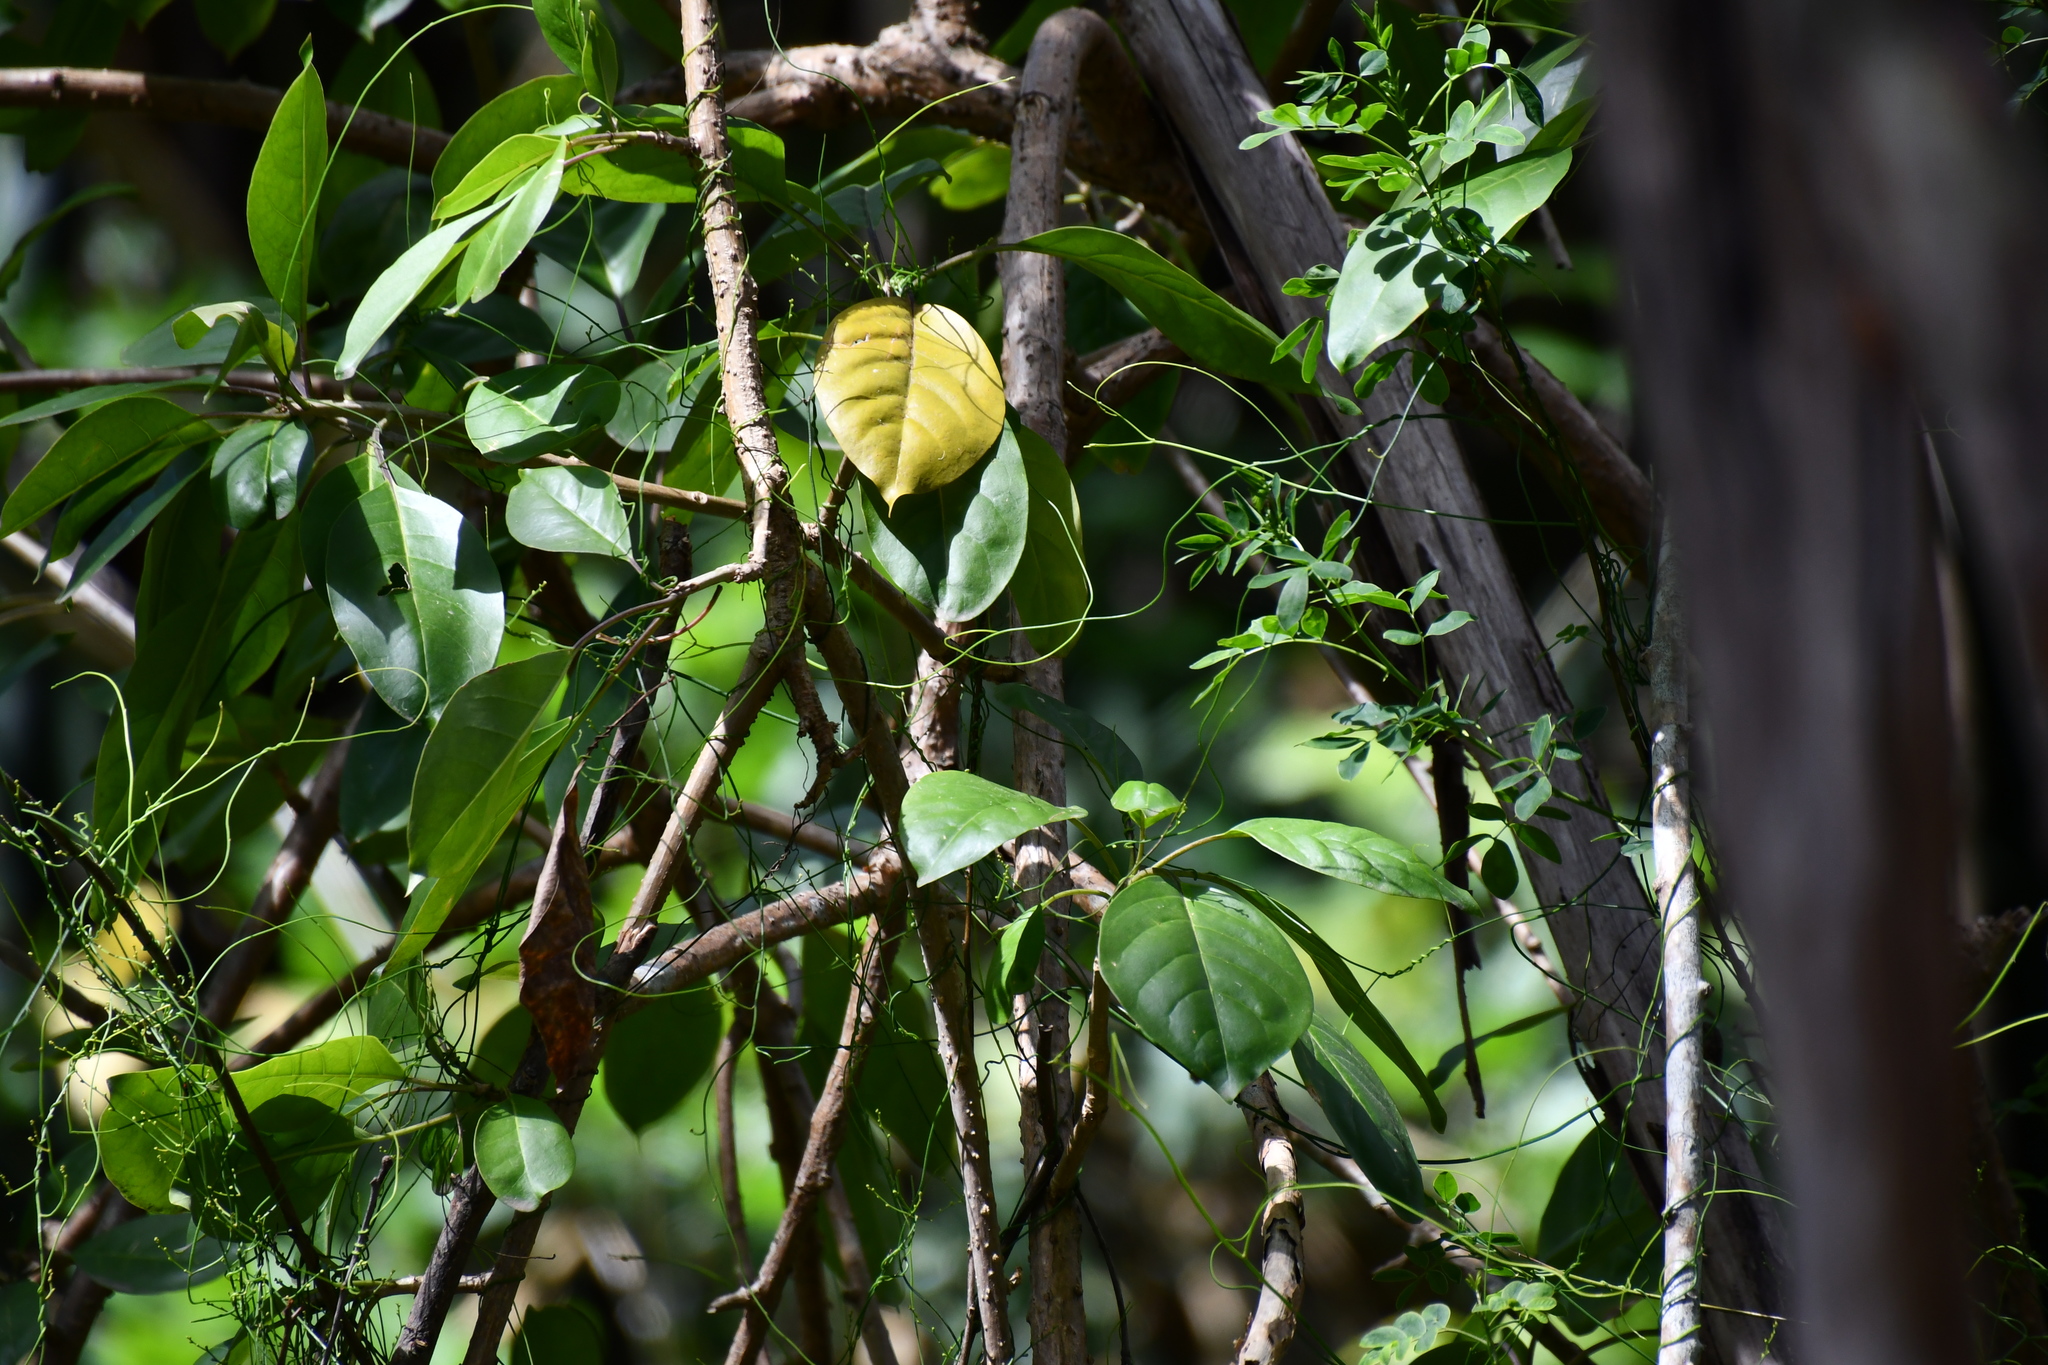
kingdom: Plantae
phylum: Tracheophyta
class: Magnoliopsida
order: Solanales
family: Solanaceae
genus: Solandra
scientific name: Solandra maxima
